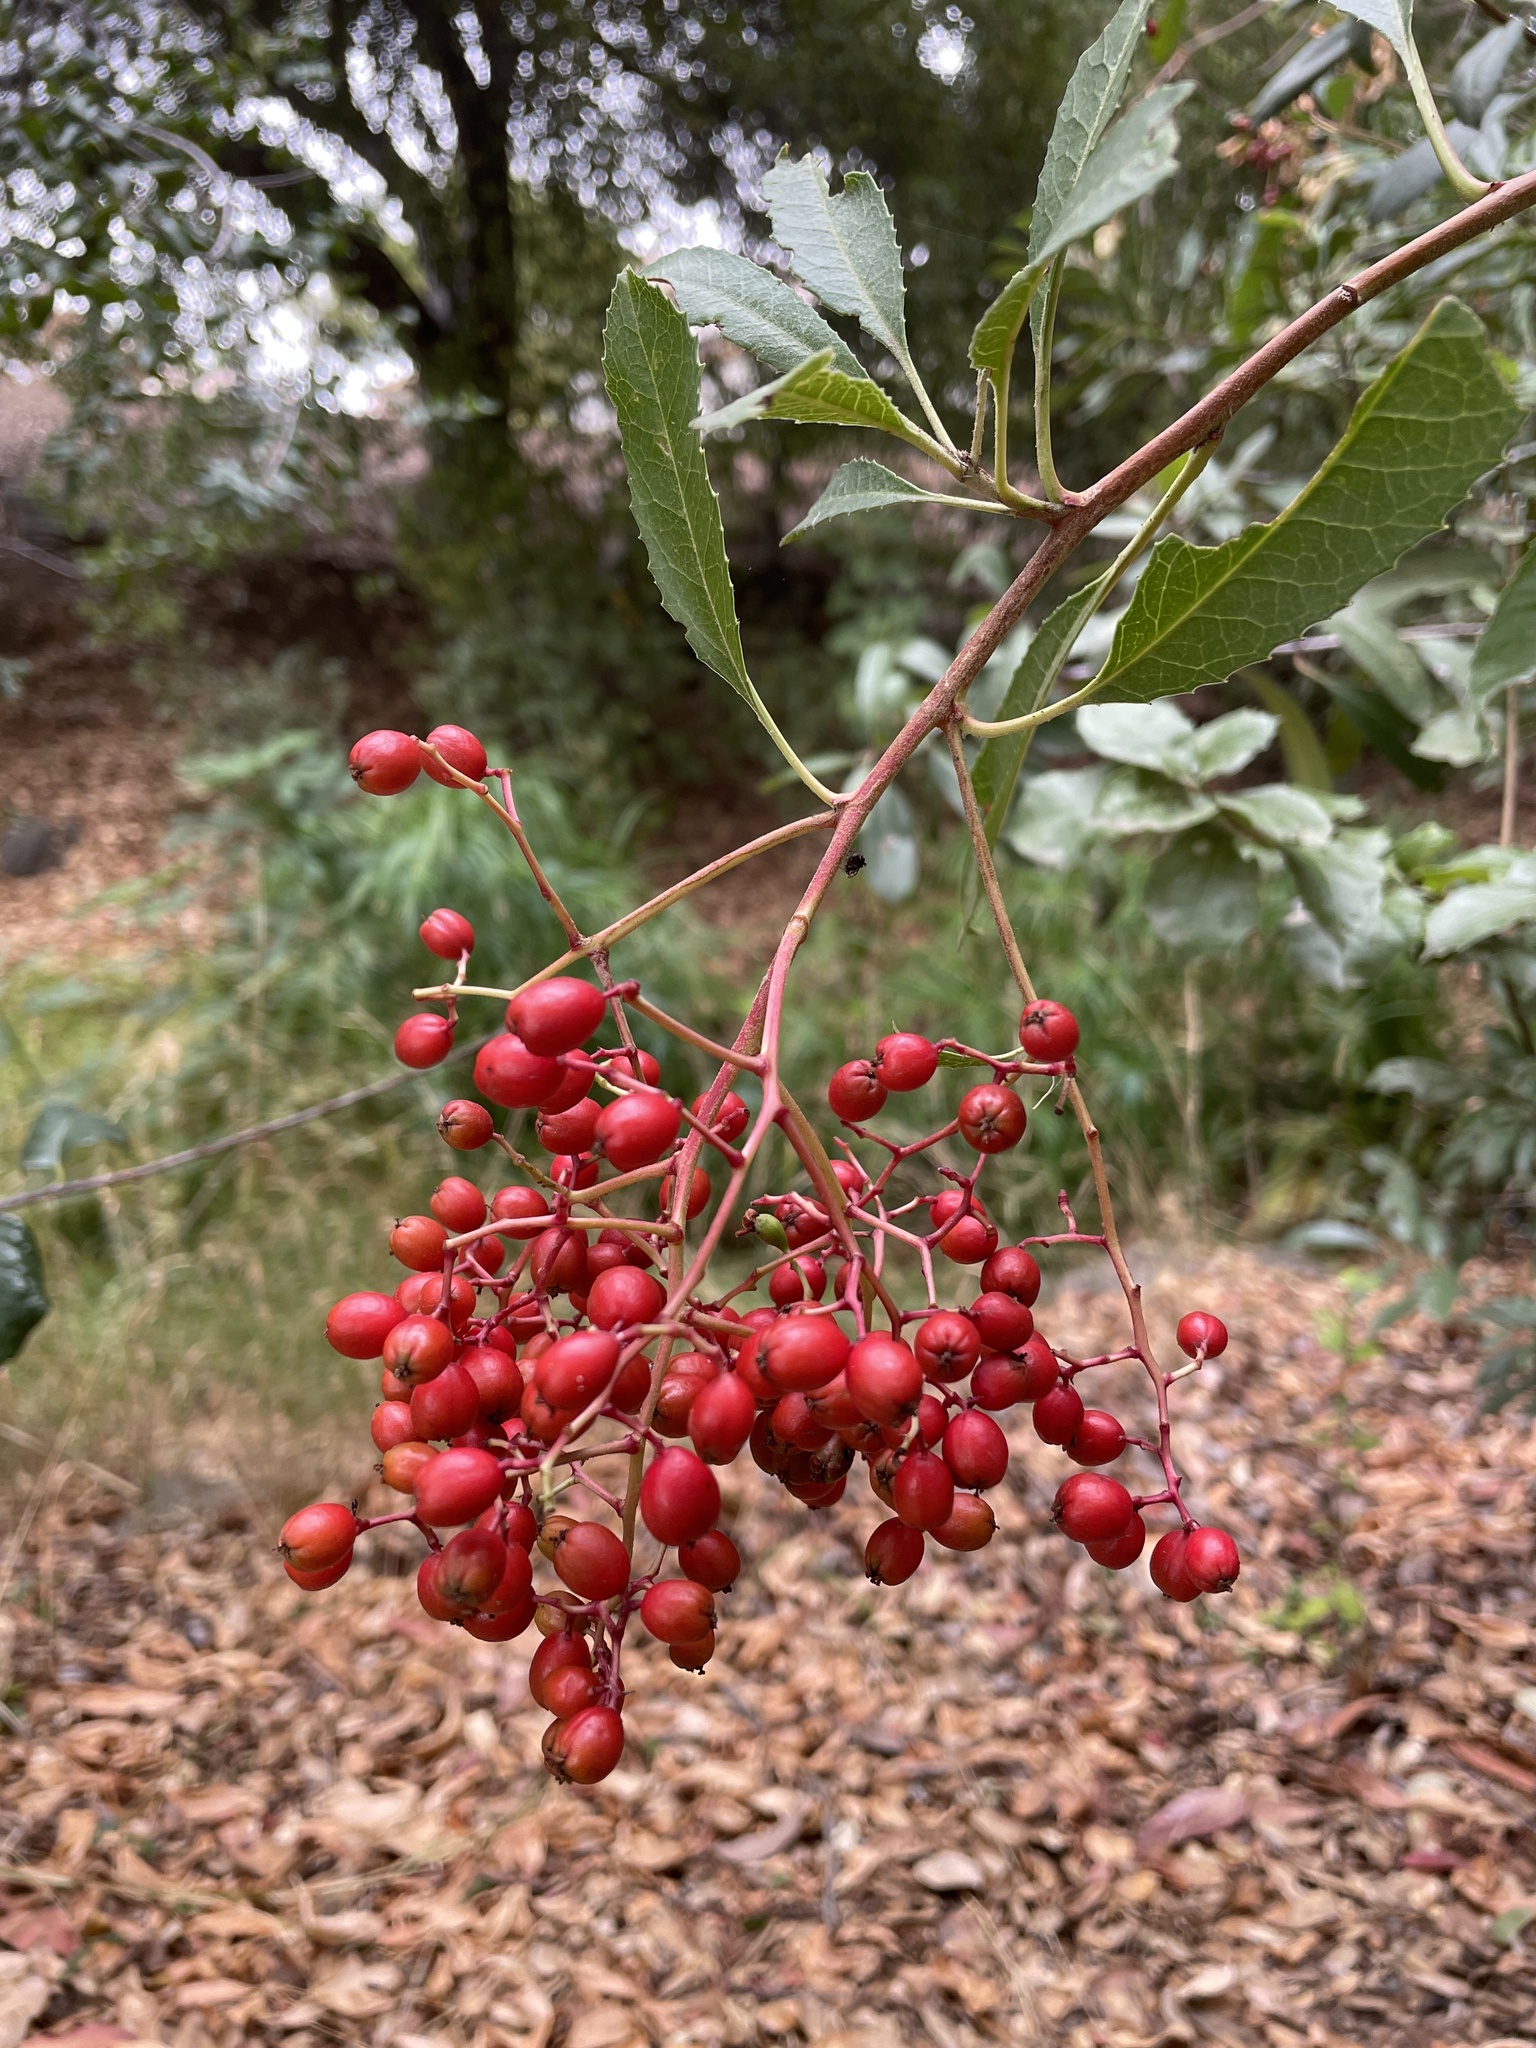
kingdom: Plantae
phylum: Tracheophyta
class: Magnoliopsida
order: Rosales
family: Rosaceae
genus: Heteromeles
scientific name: Heteromeles arbutifolia
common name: California-holly
